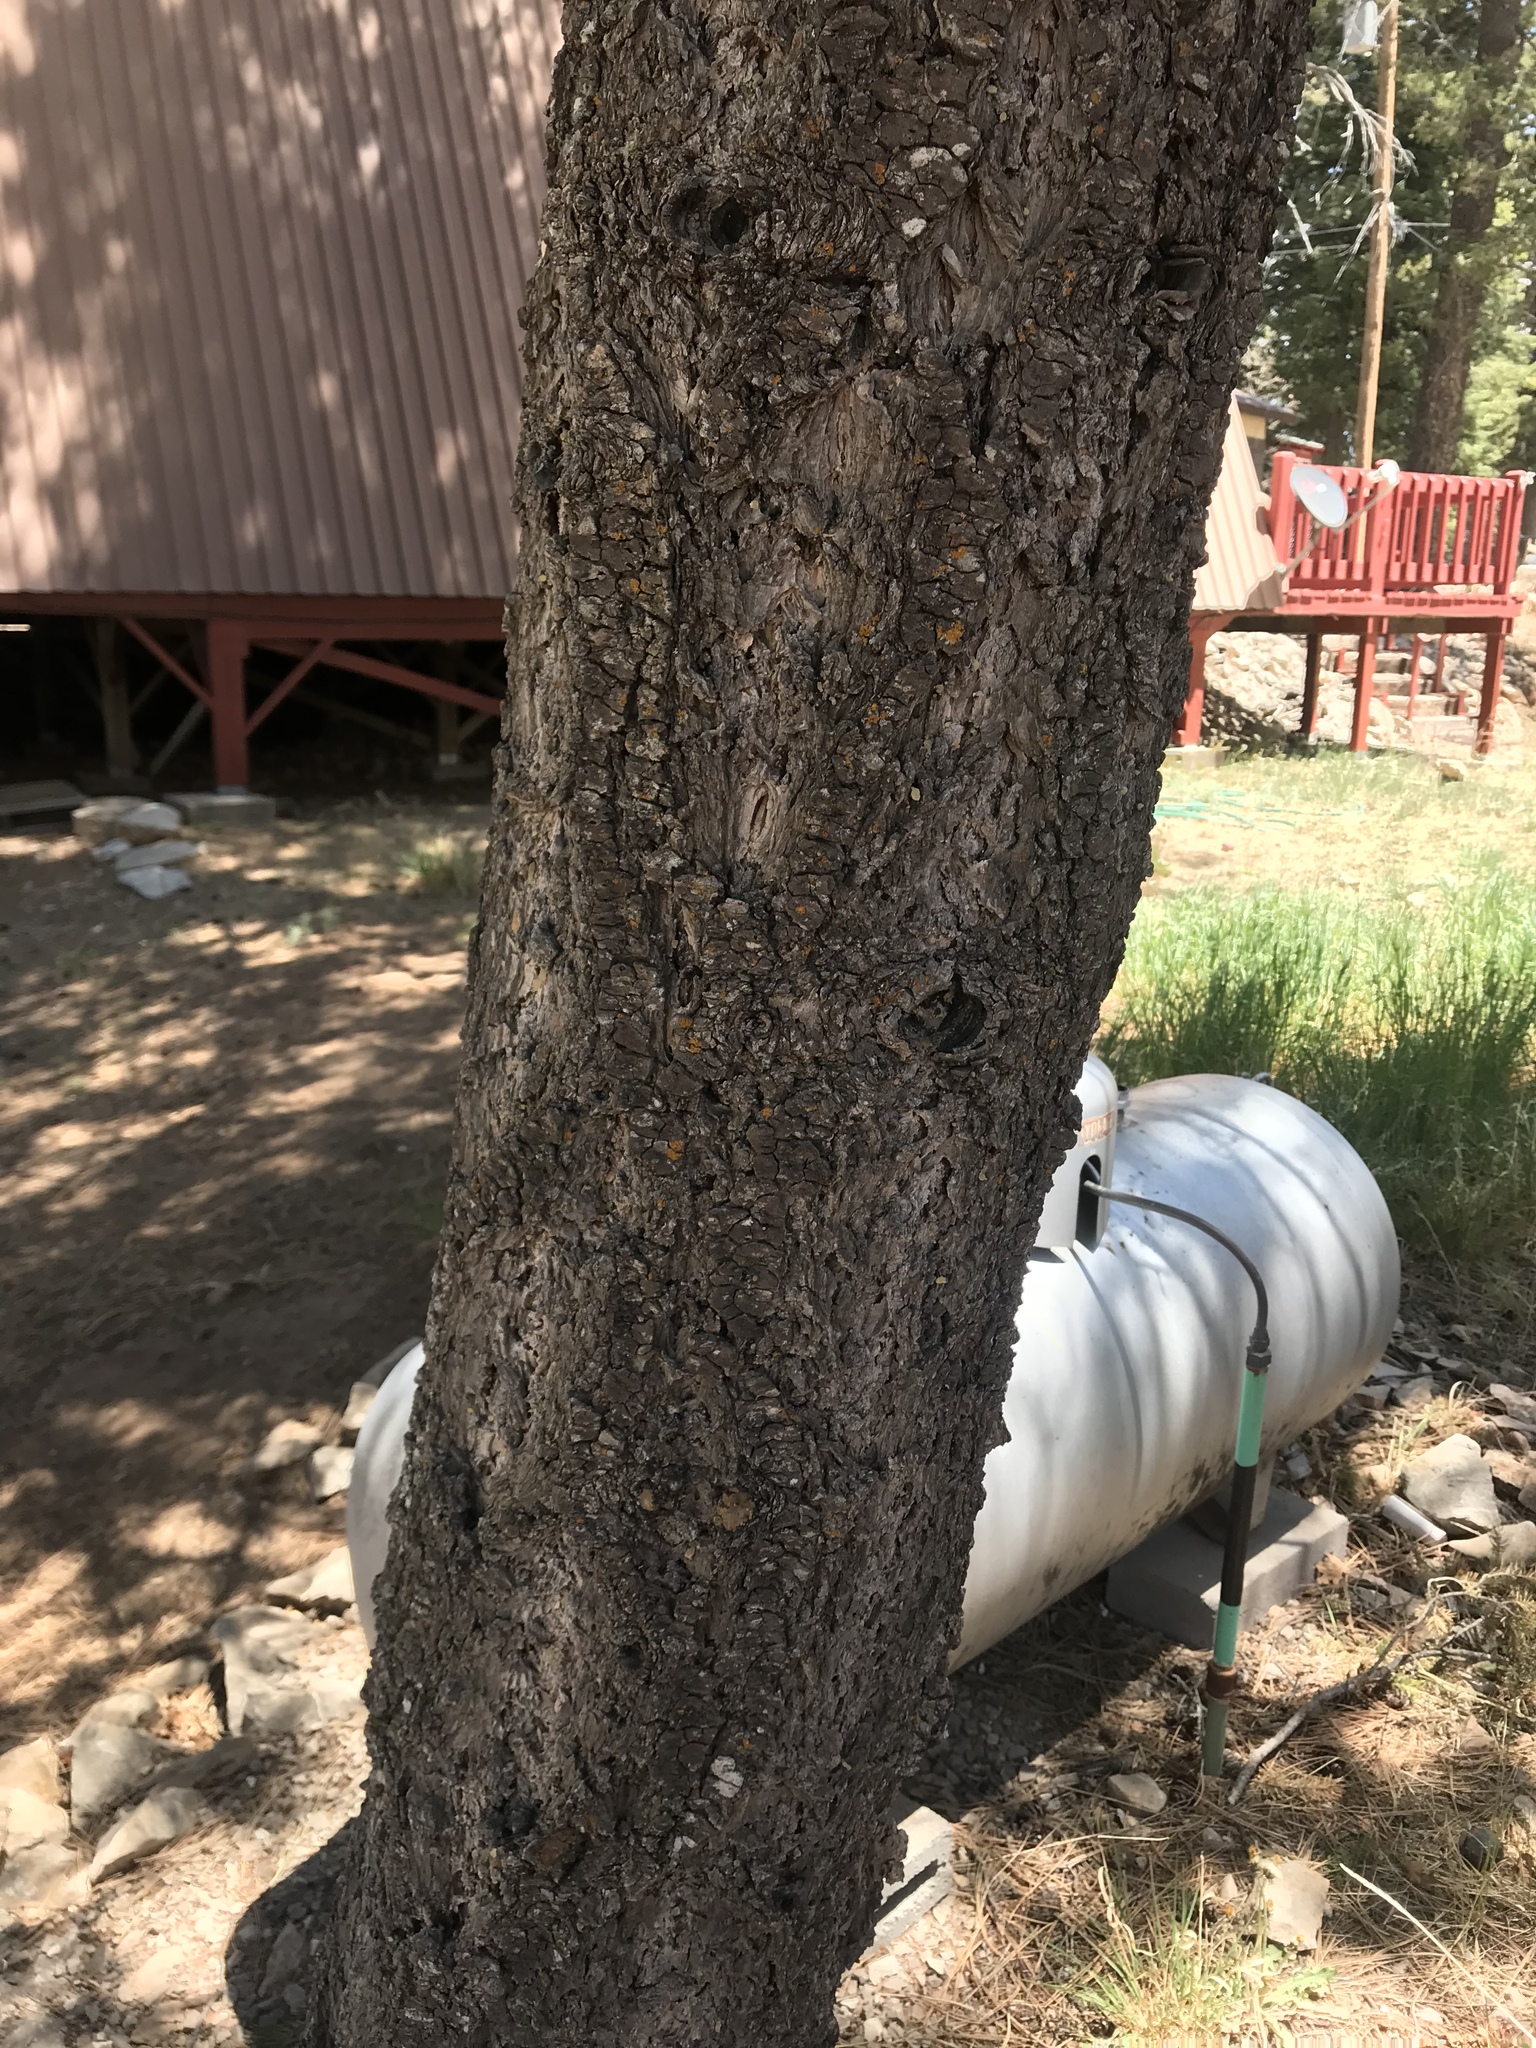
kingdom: Plantae
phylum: Tracheophyta
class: Pinopsida
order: Pinales
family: Pinaceae
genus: Pseudotsuga
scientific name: Pseudotsuga menziesii
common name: Douglas fir
